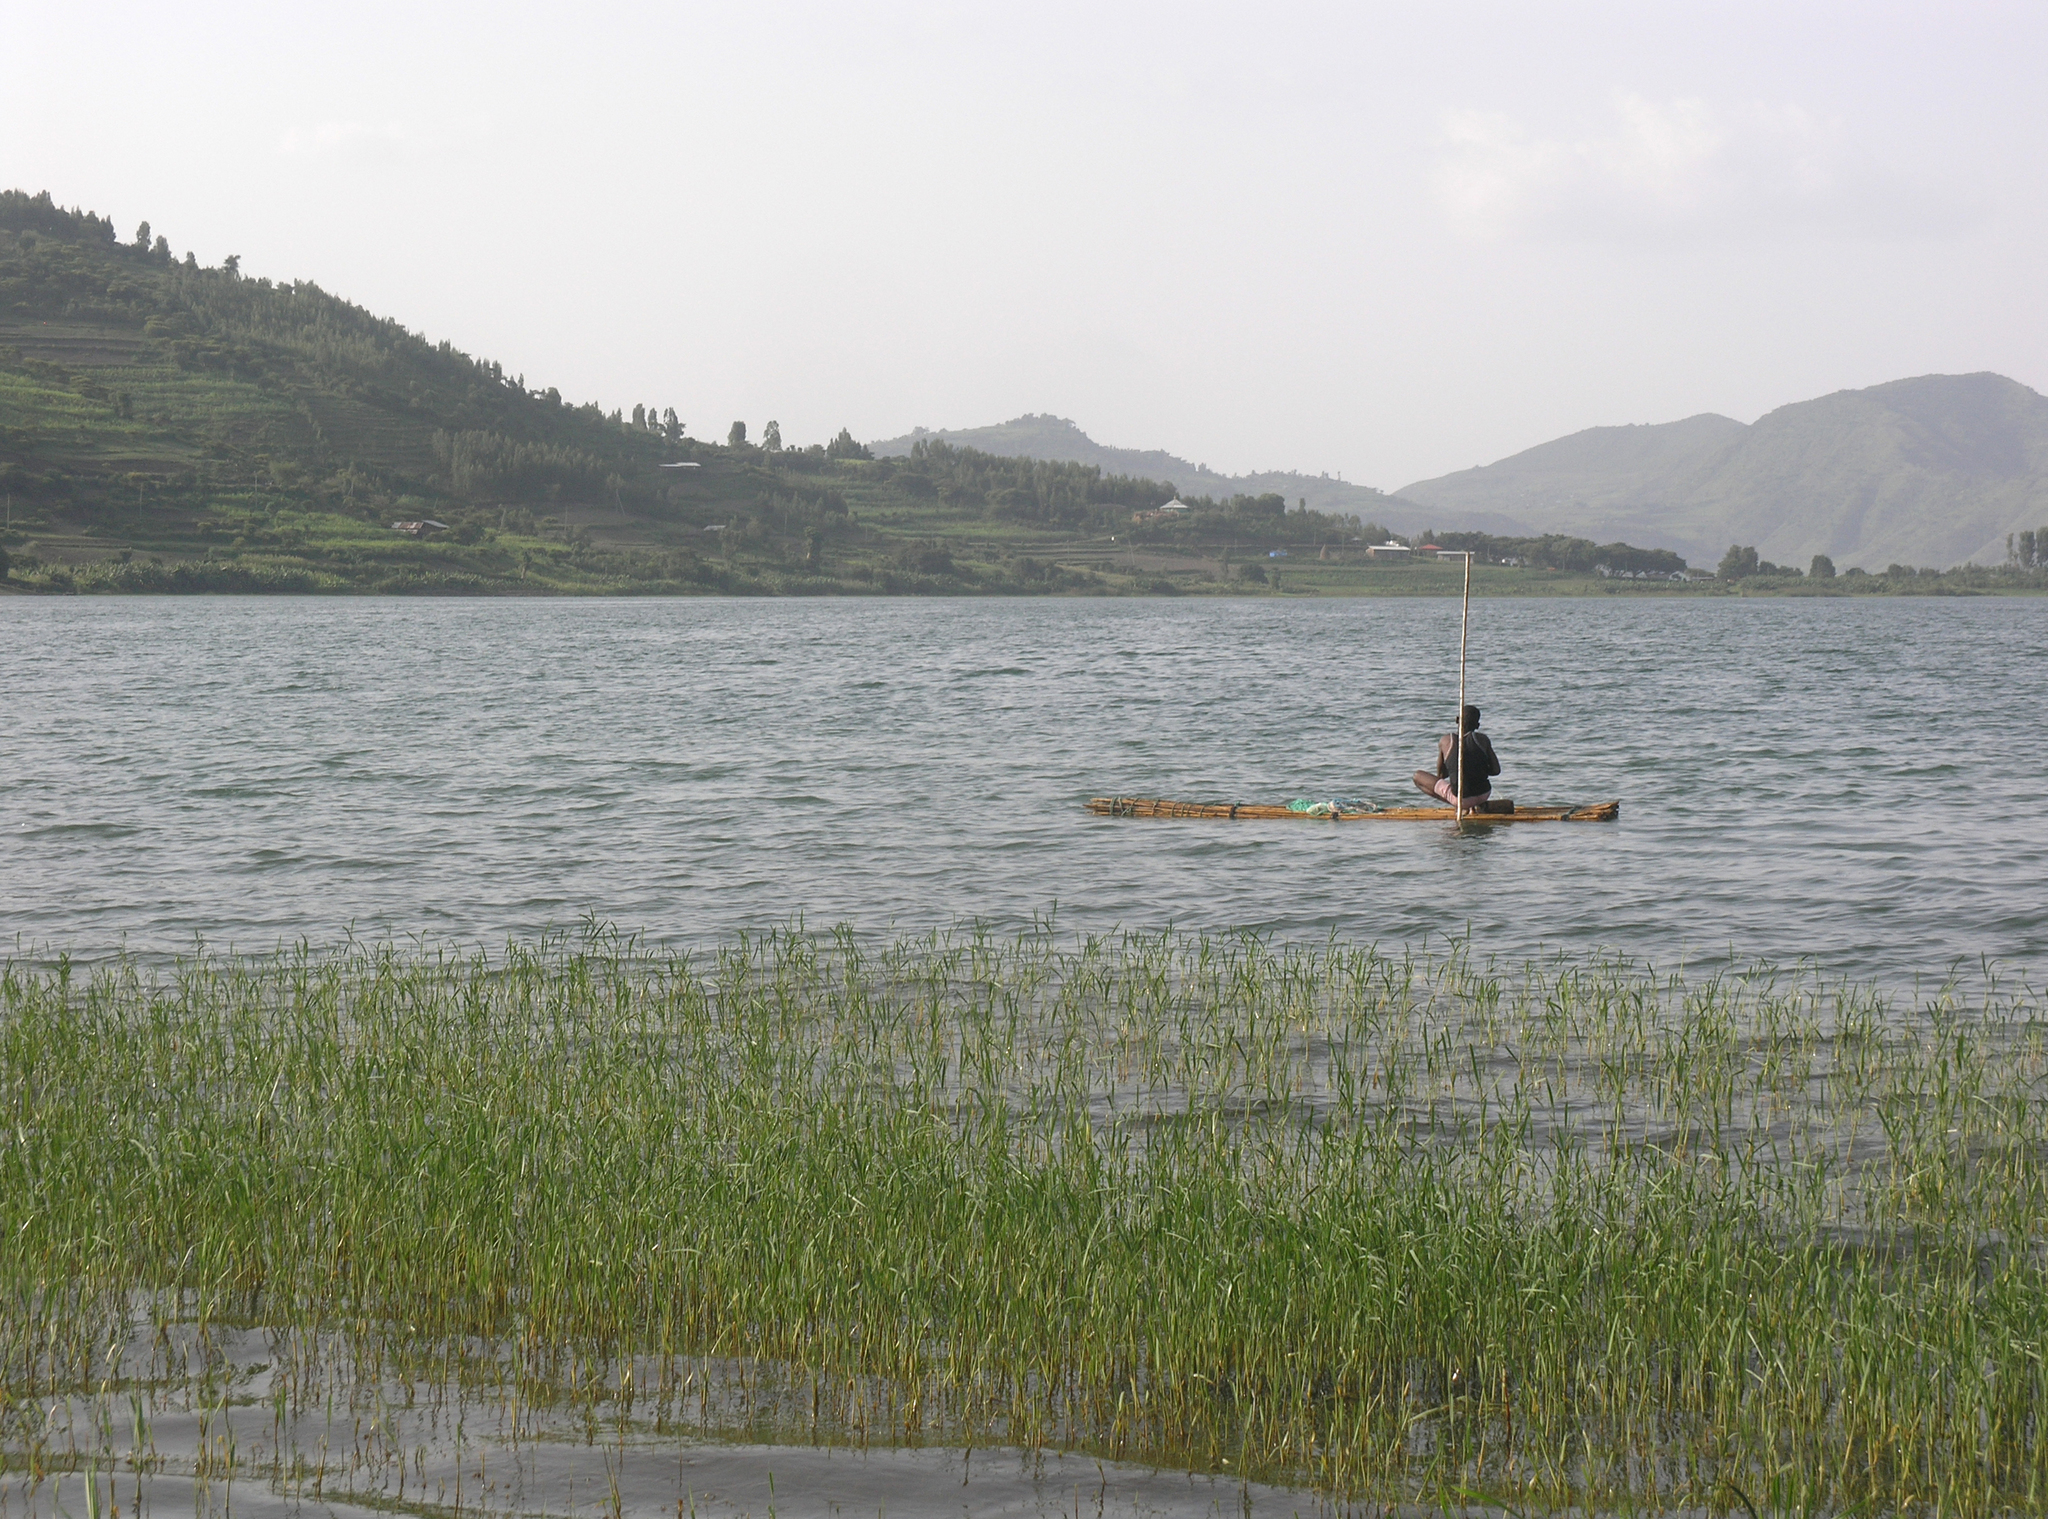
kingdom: Animalia
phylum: Arthropoda
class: Insecta
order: Odonata
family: Libellulidae
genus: Nesciothemis
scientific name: Nesciothemis farinosa
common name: Eastern blacktail
